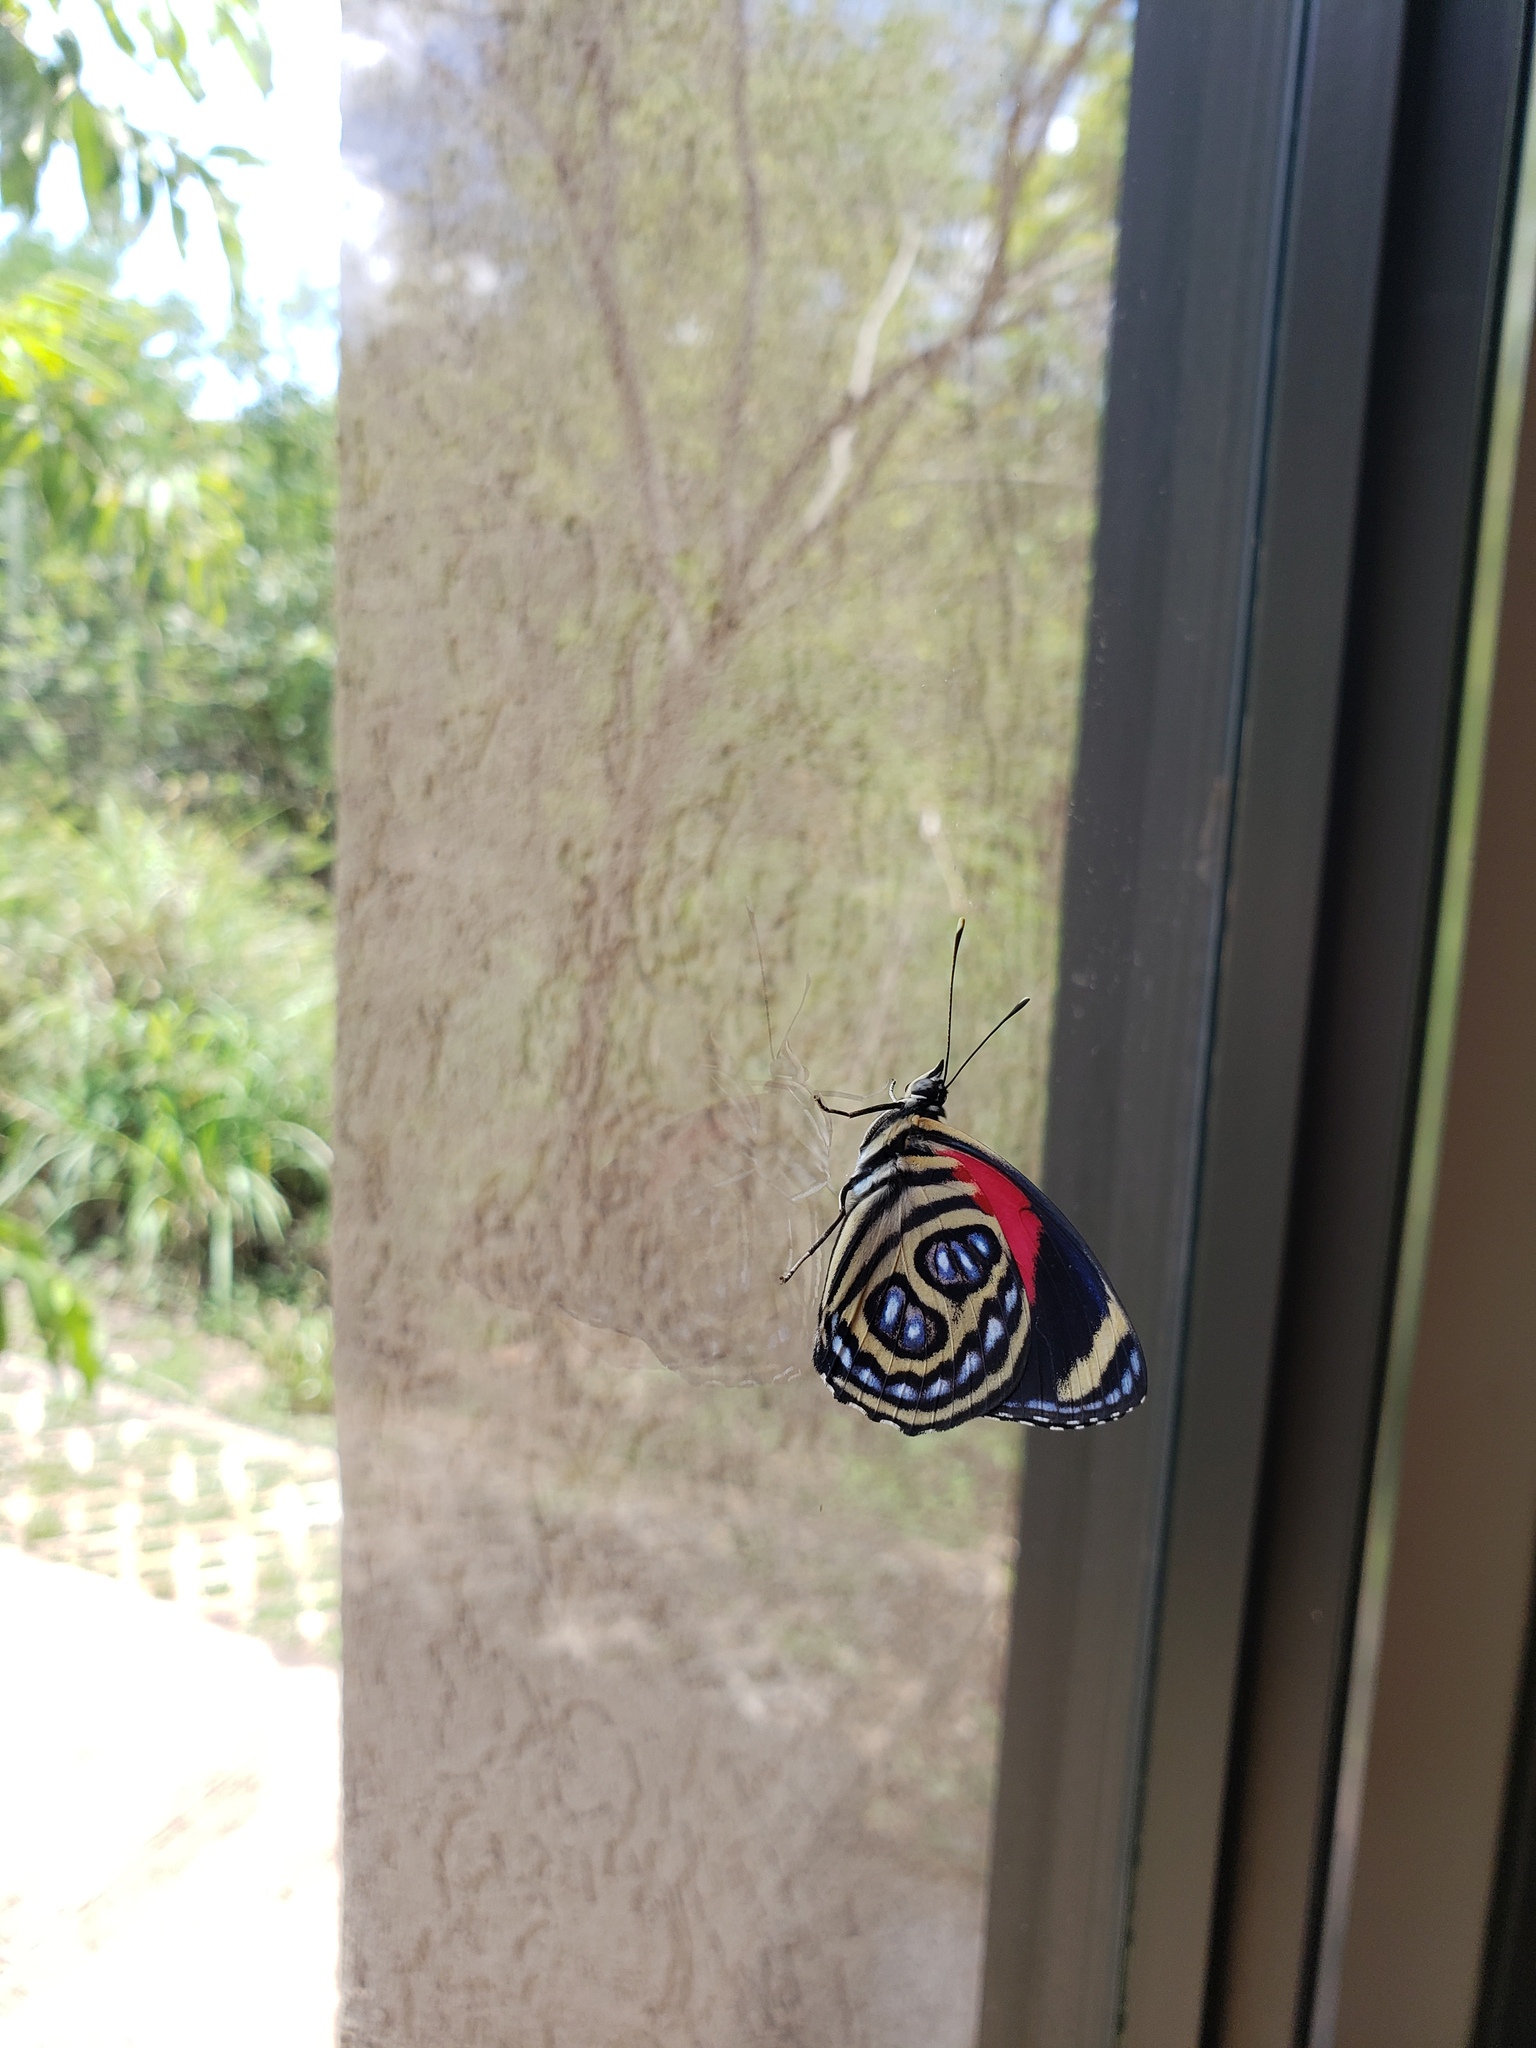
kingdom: Animalia
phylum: Arthropoda
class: Insecta
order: Lepidoptera
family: Nymphalidae
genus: Catagramma
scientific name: Catagramma pygas
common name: Godart's numberwing
